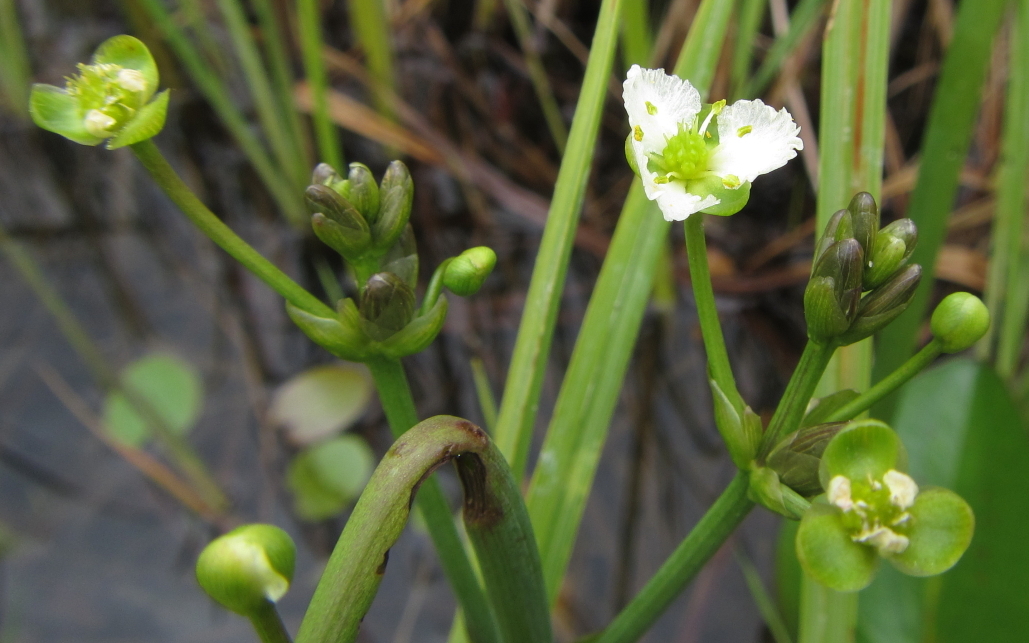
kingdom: Plantae
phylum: Tracheophyta
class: Liliopsida
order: Alismatales
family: Alismataceae
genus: Caldesia
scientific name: Caldesia parnassifolia
